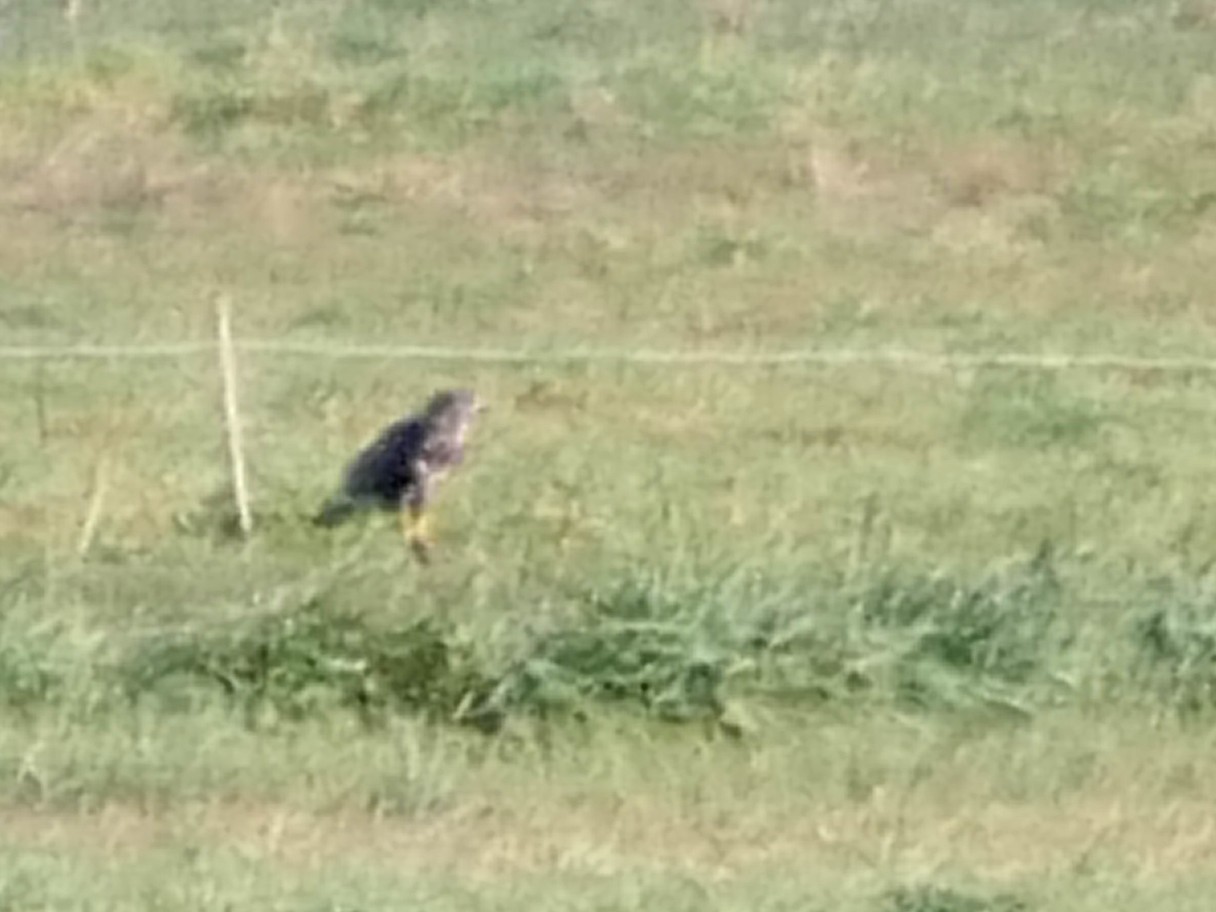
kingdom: Animalia
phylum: Chordata
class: Aves
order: Accipitriformes
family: Accipitridae
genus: Buteo
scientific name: Buteo buteo
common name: Common buzzard
